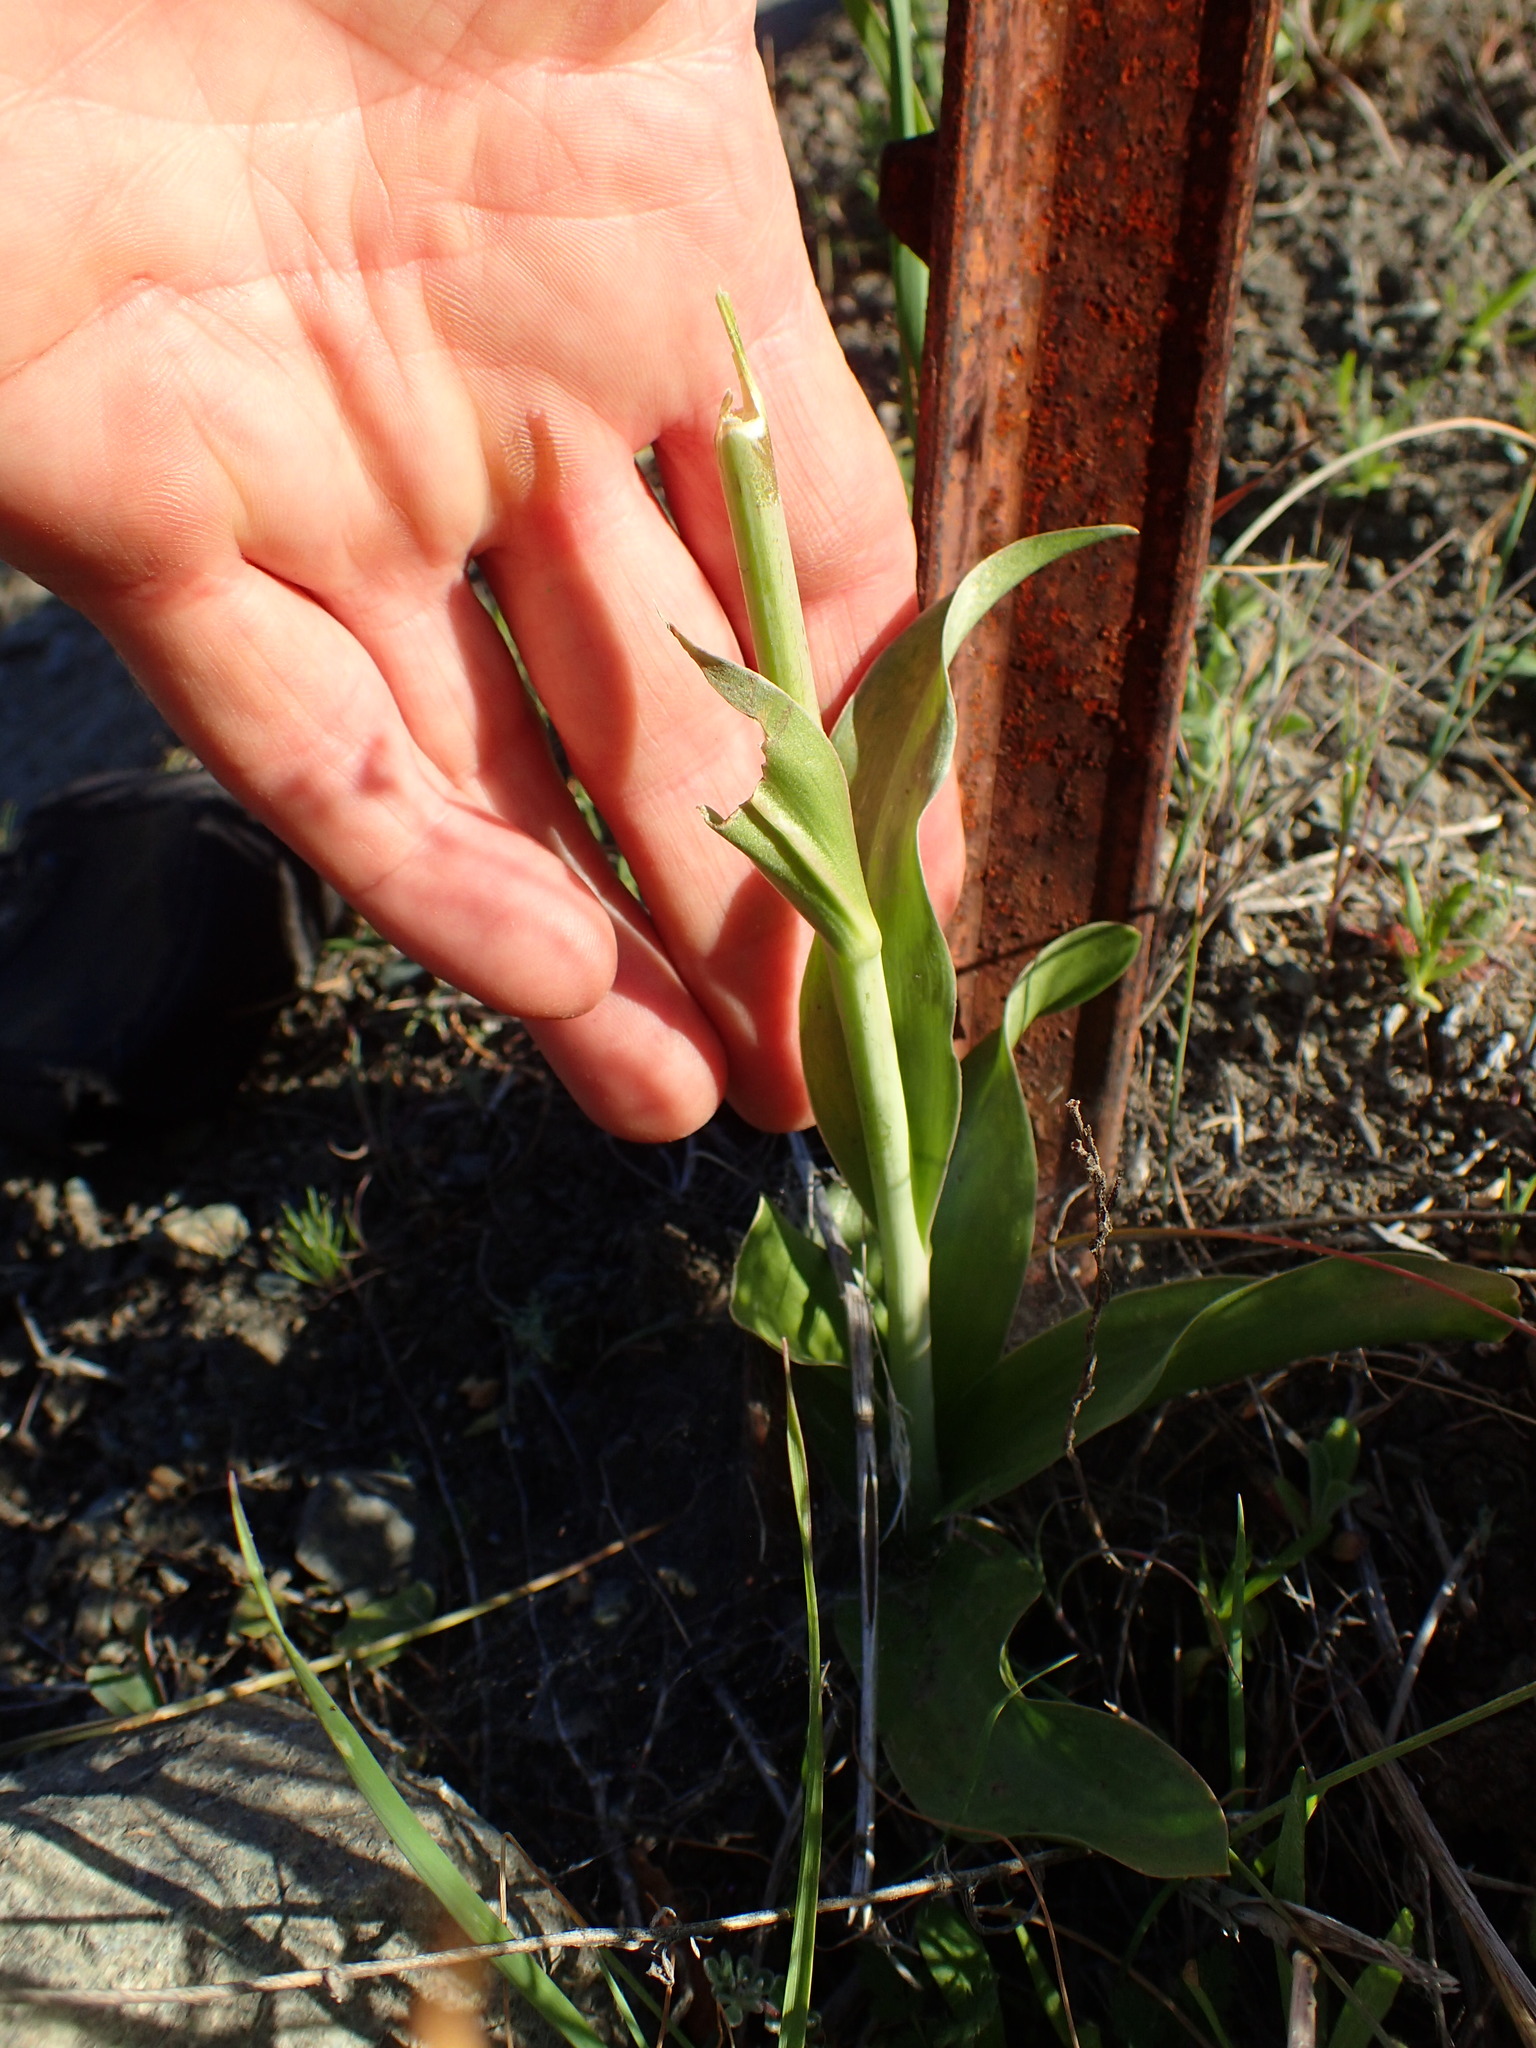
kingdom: Plantae
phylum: Tracheophyta
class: Liliopsida
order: Liliales
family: Liliaceae
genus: Fritillaria
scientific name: Fritillaria biflora
